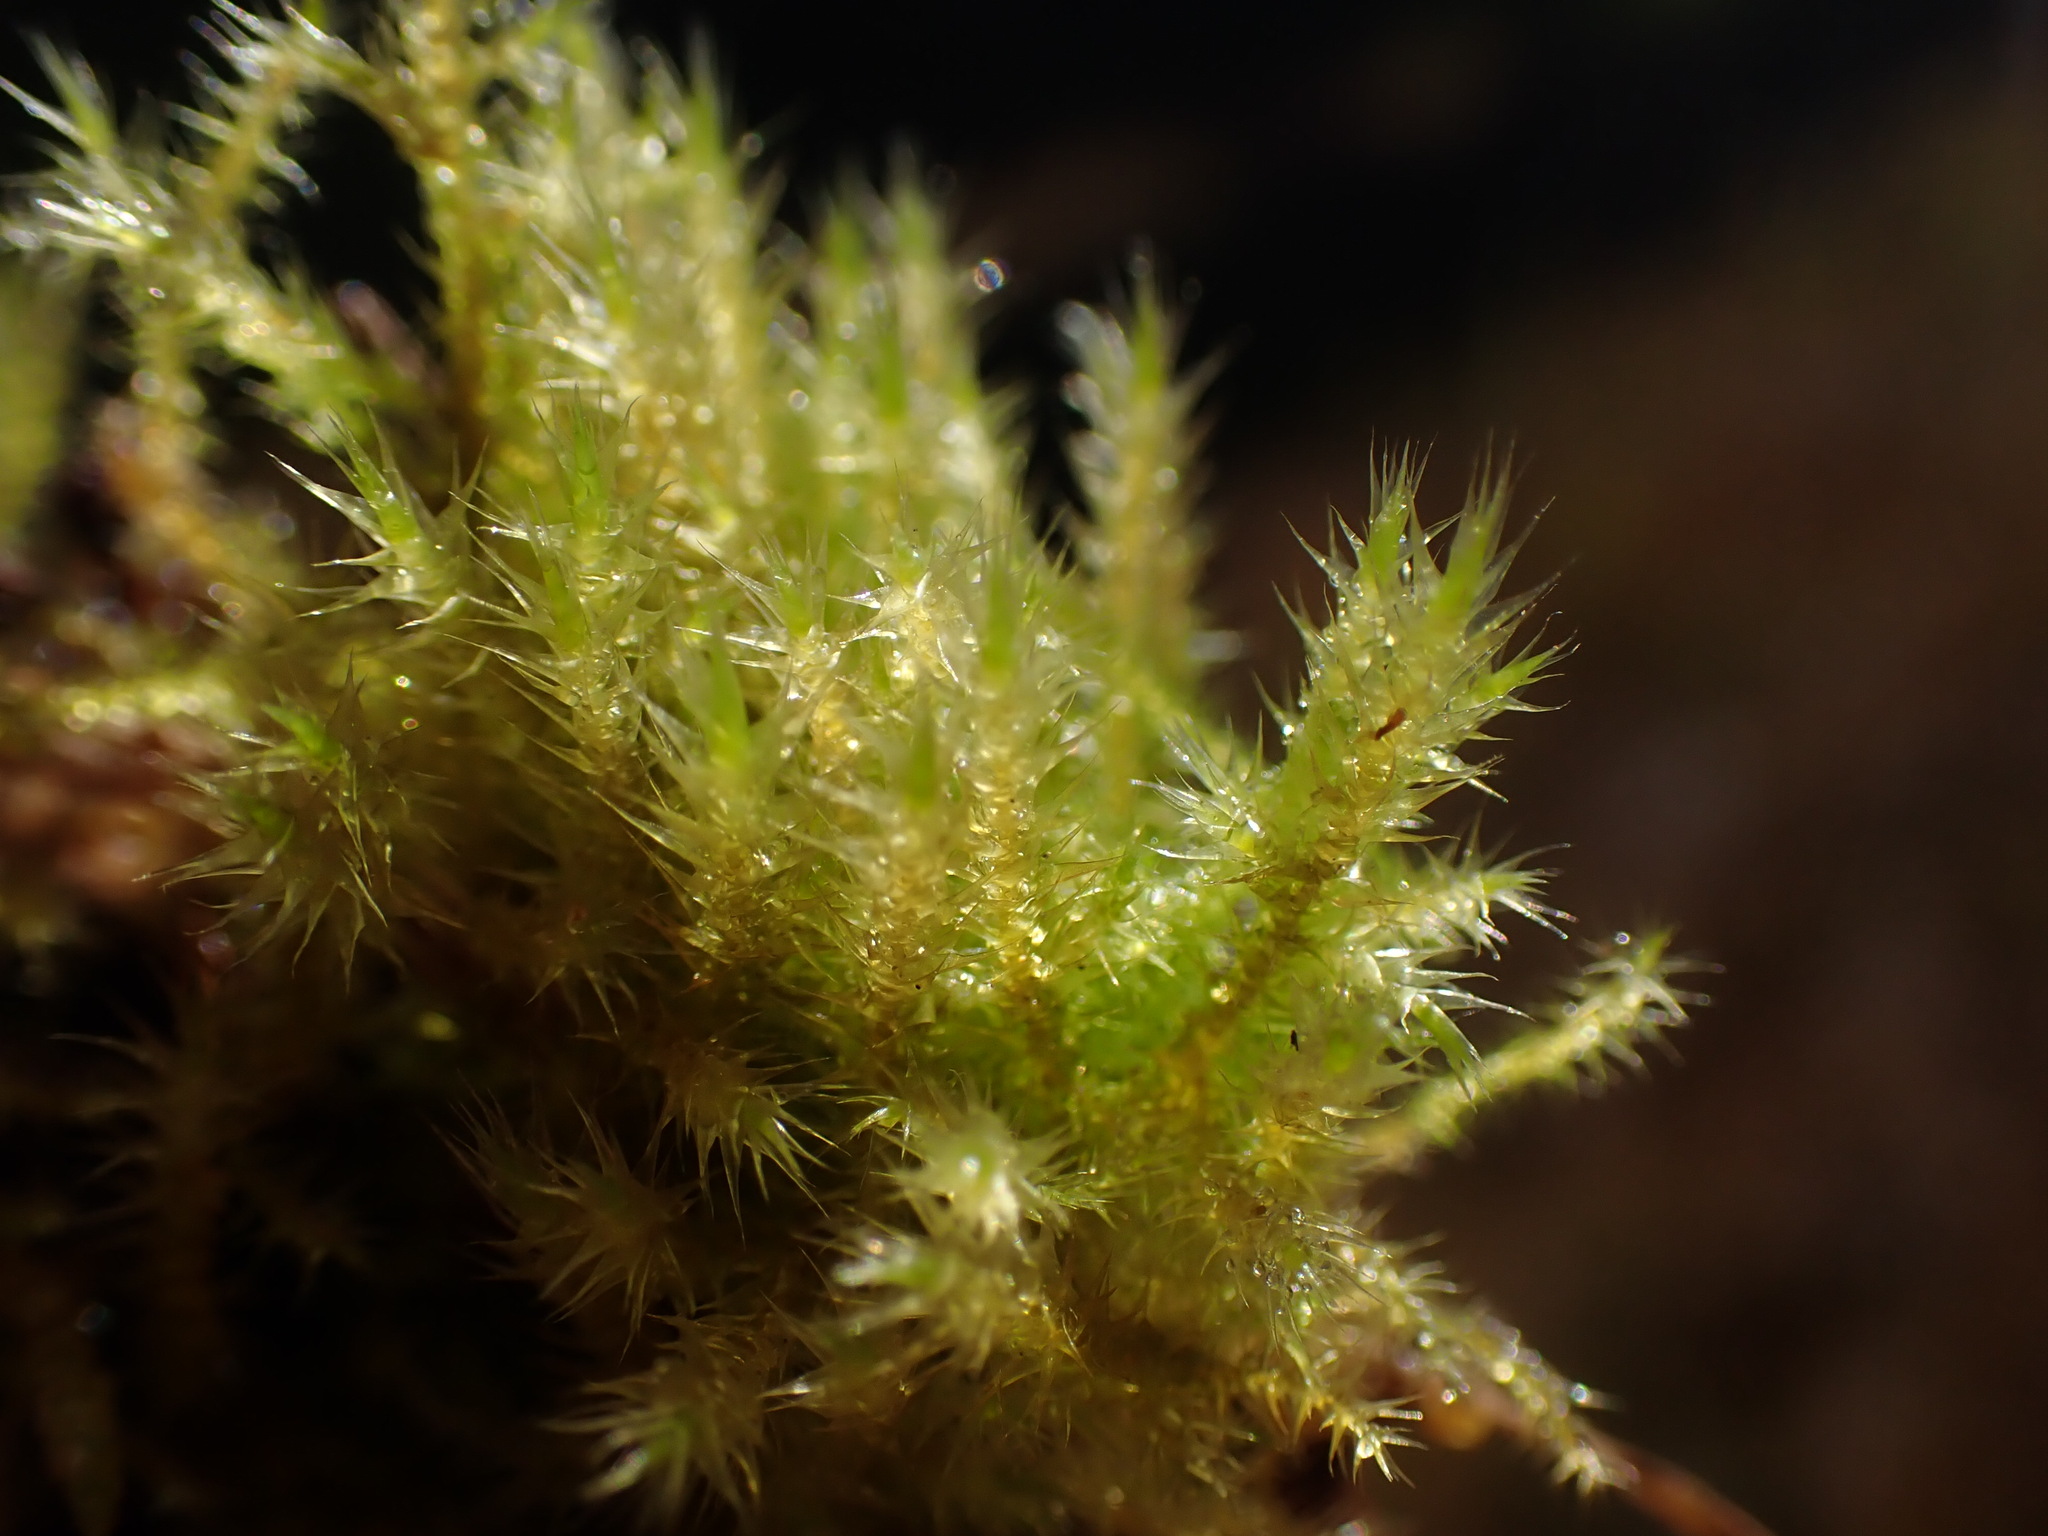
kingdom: Plantae
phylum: Bryophyta
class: Bryopsida
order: Hypnales
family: Amblystegiaceae
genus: Campylium
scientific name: Campylium stellatum
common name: Yellow starry fen moss
